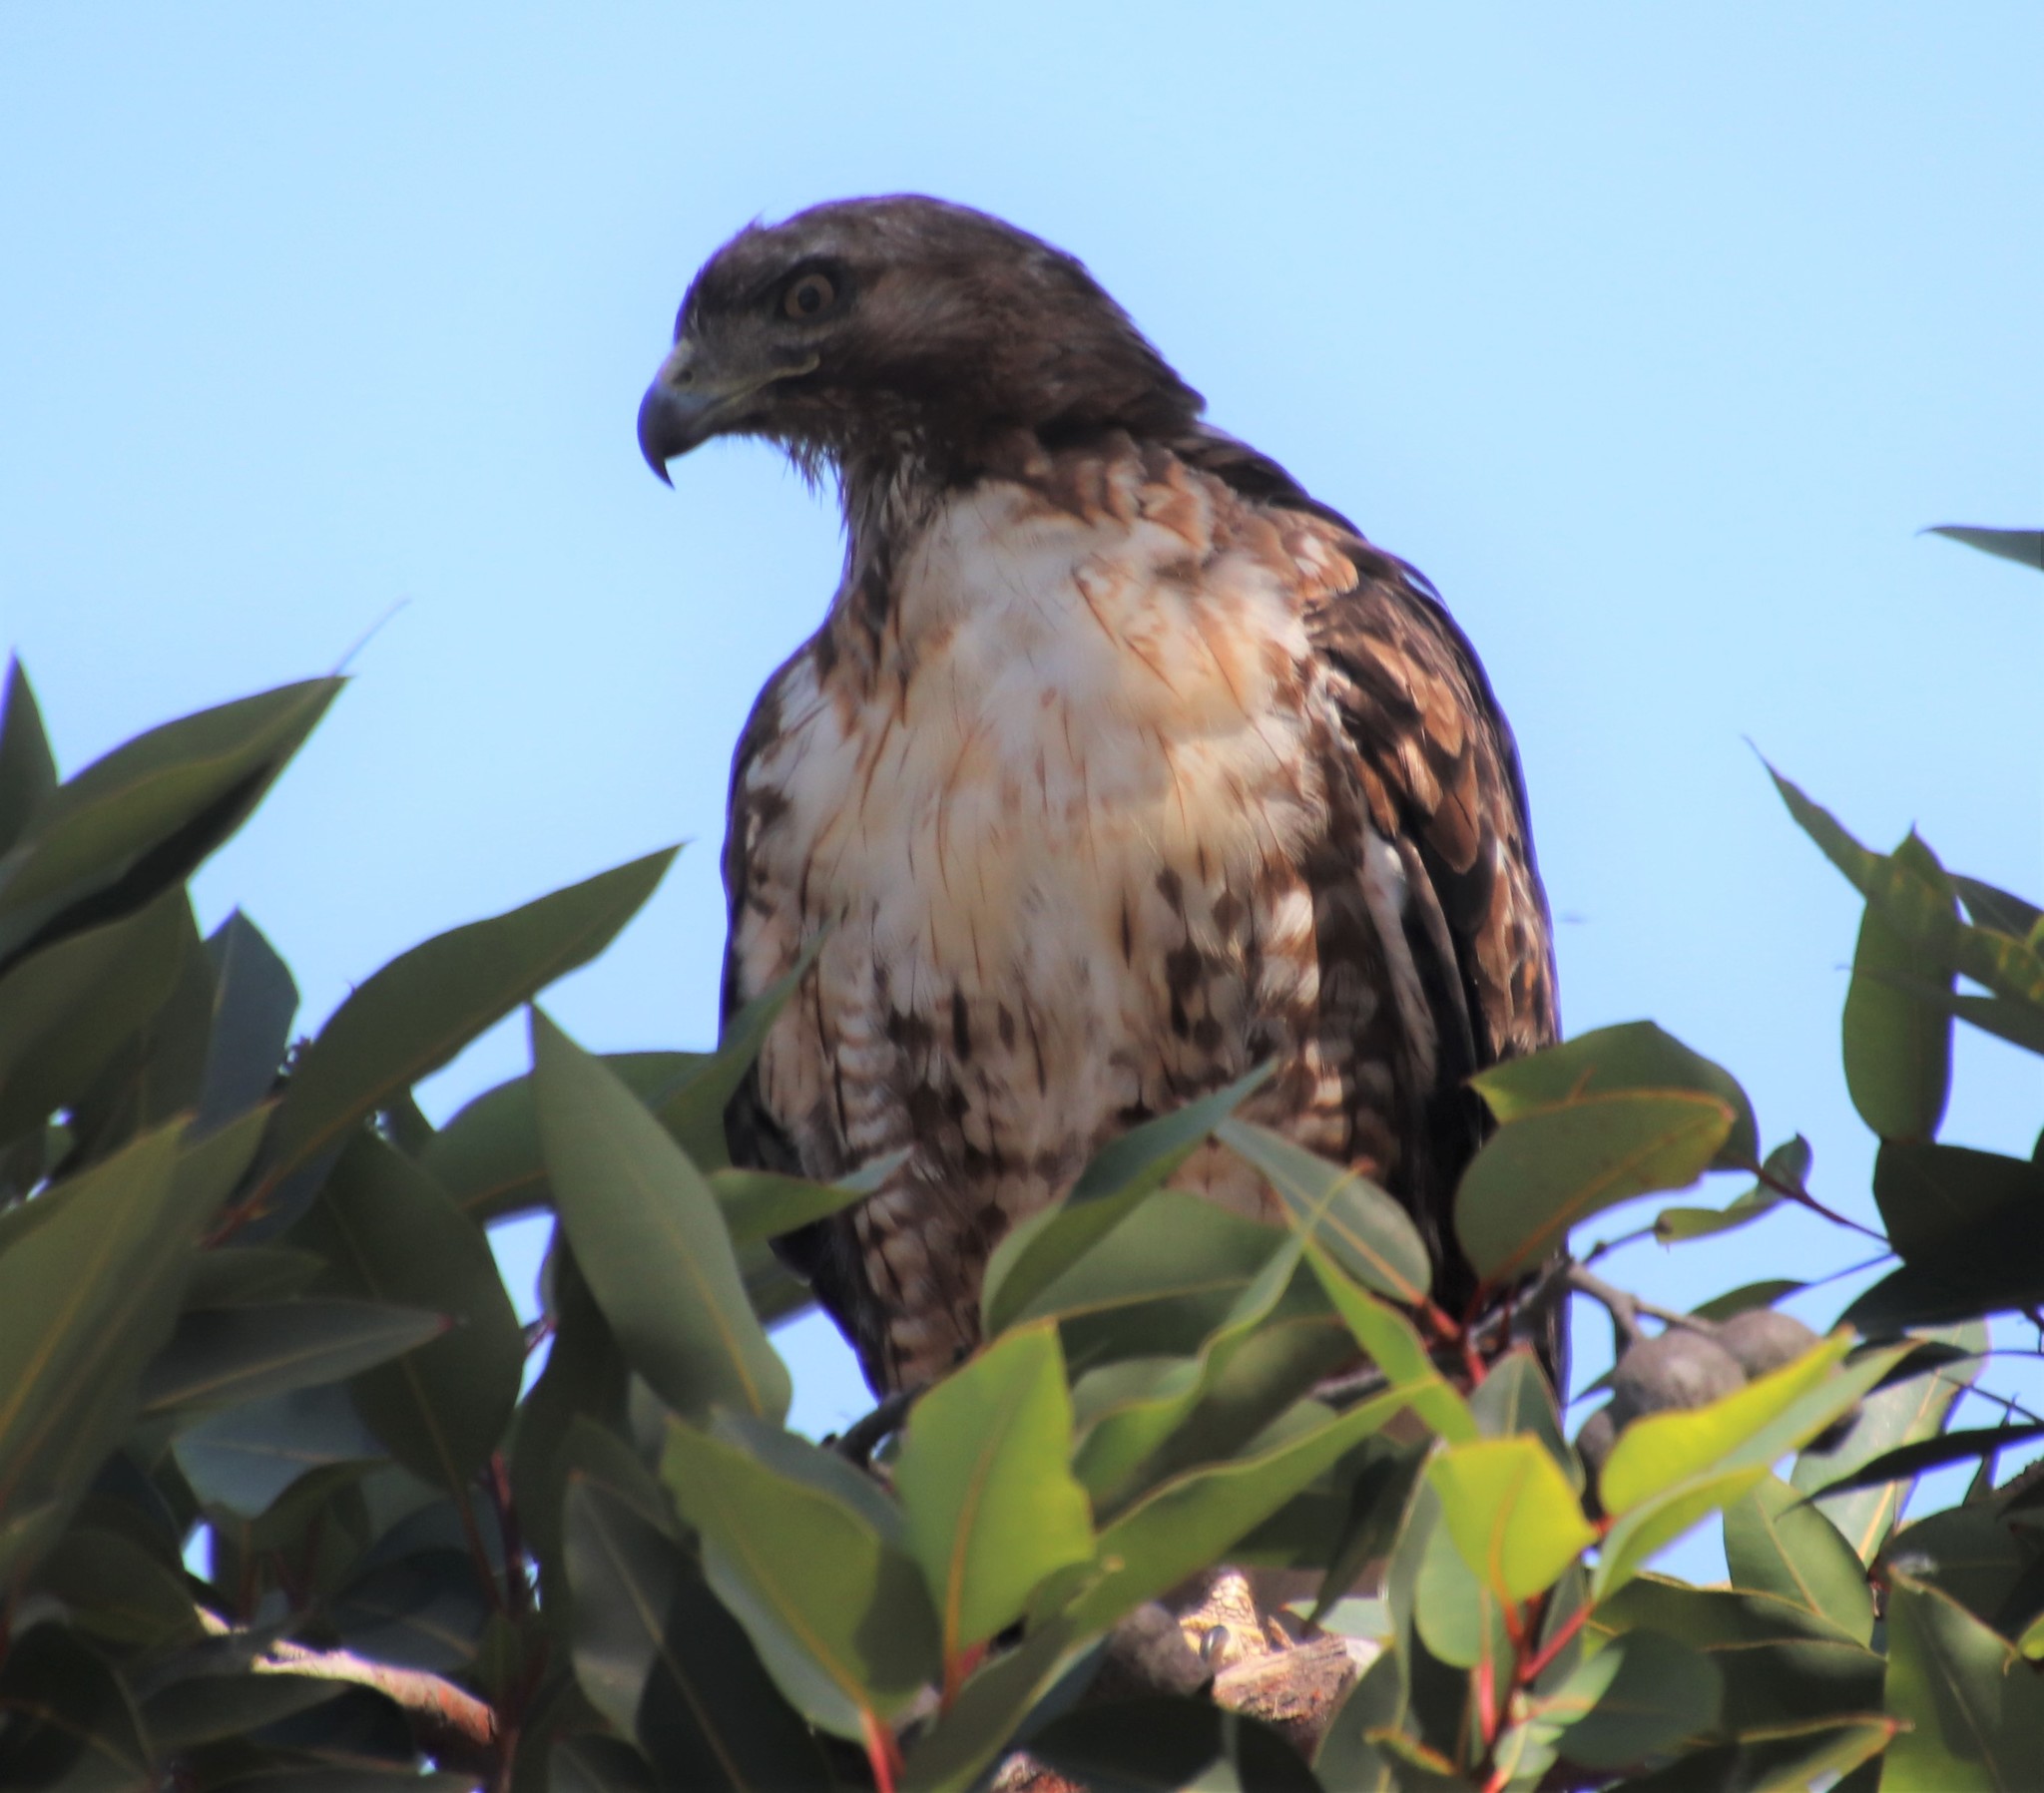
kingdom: Animalia
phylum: Chordata
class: Aves
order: Accipitriformes
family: Accipitridae
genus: Buteo
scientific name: Buteo jamaicensis
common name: Red-tailed hawk
